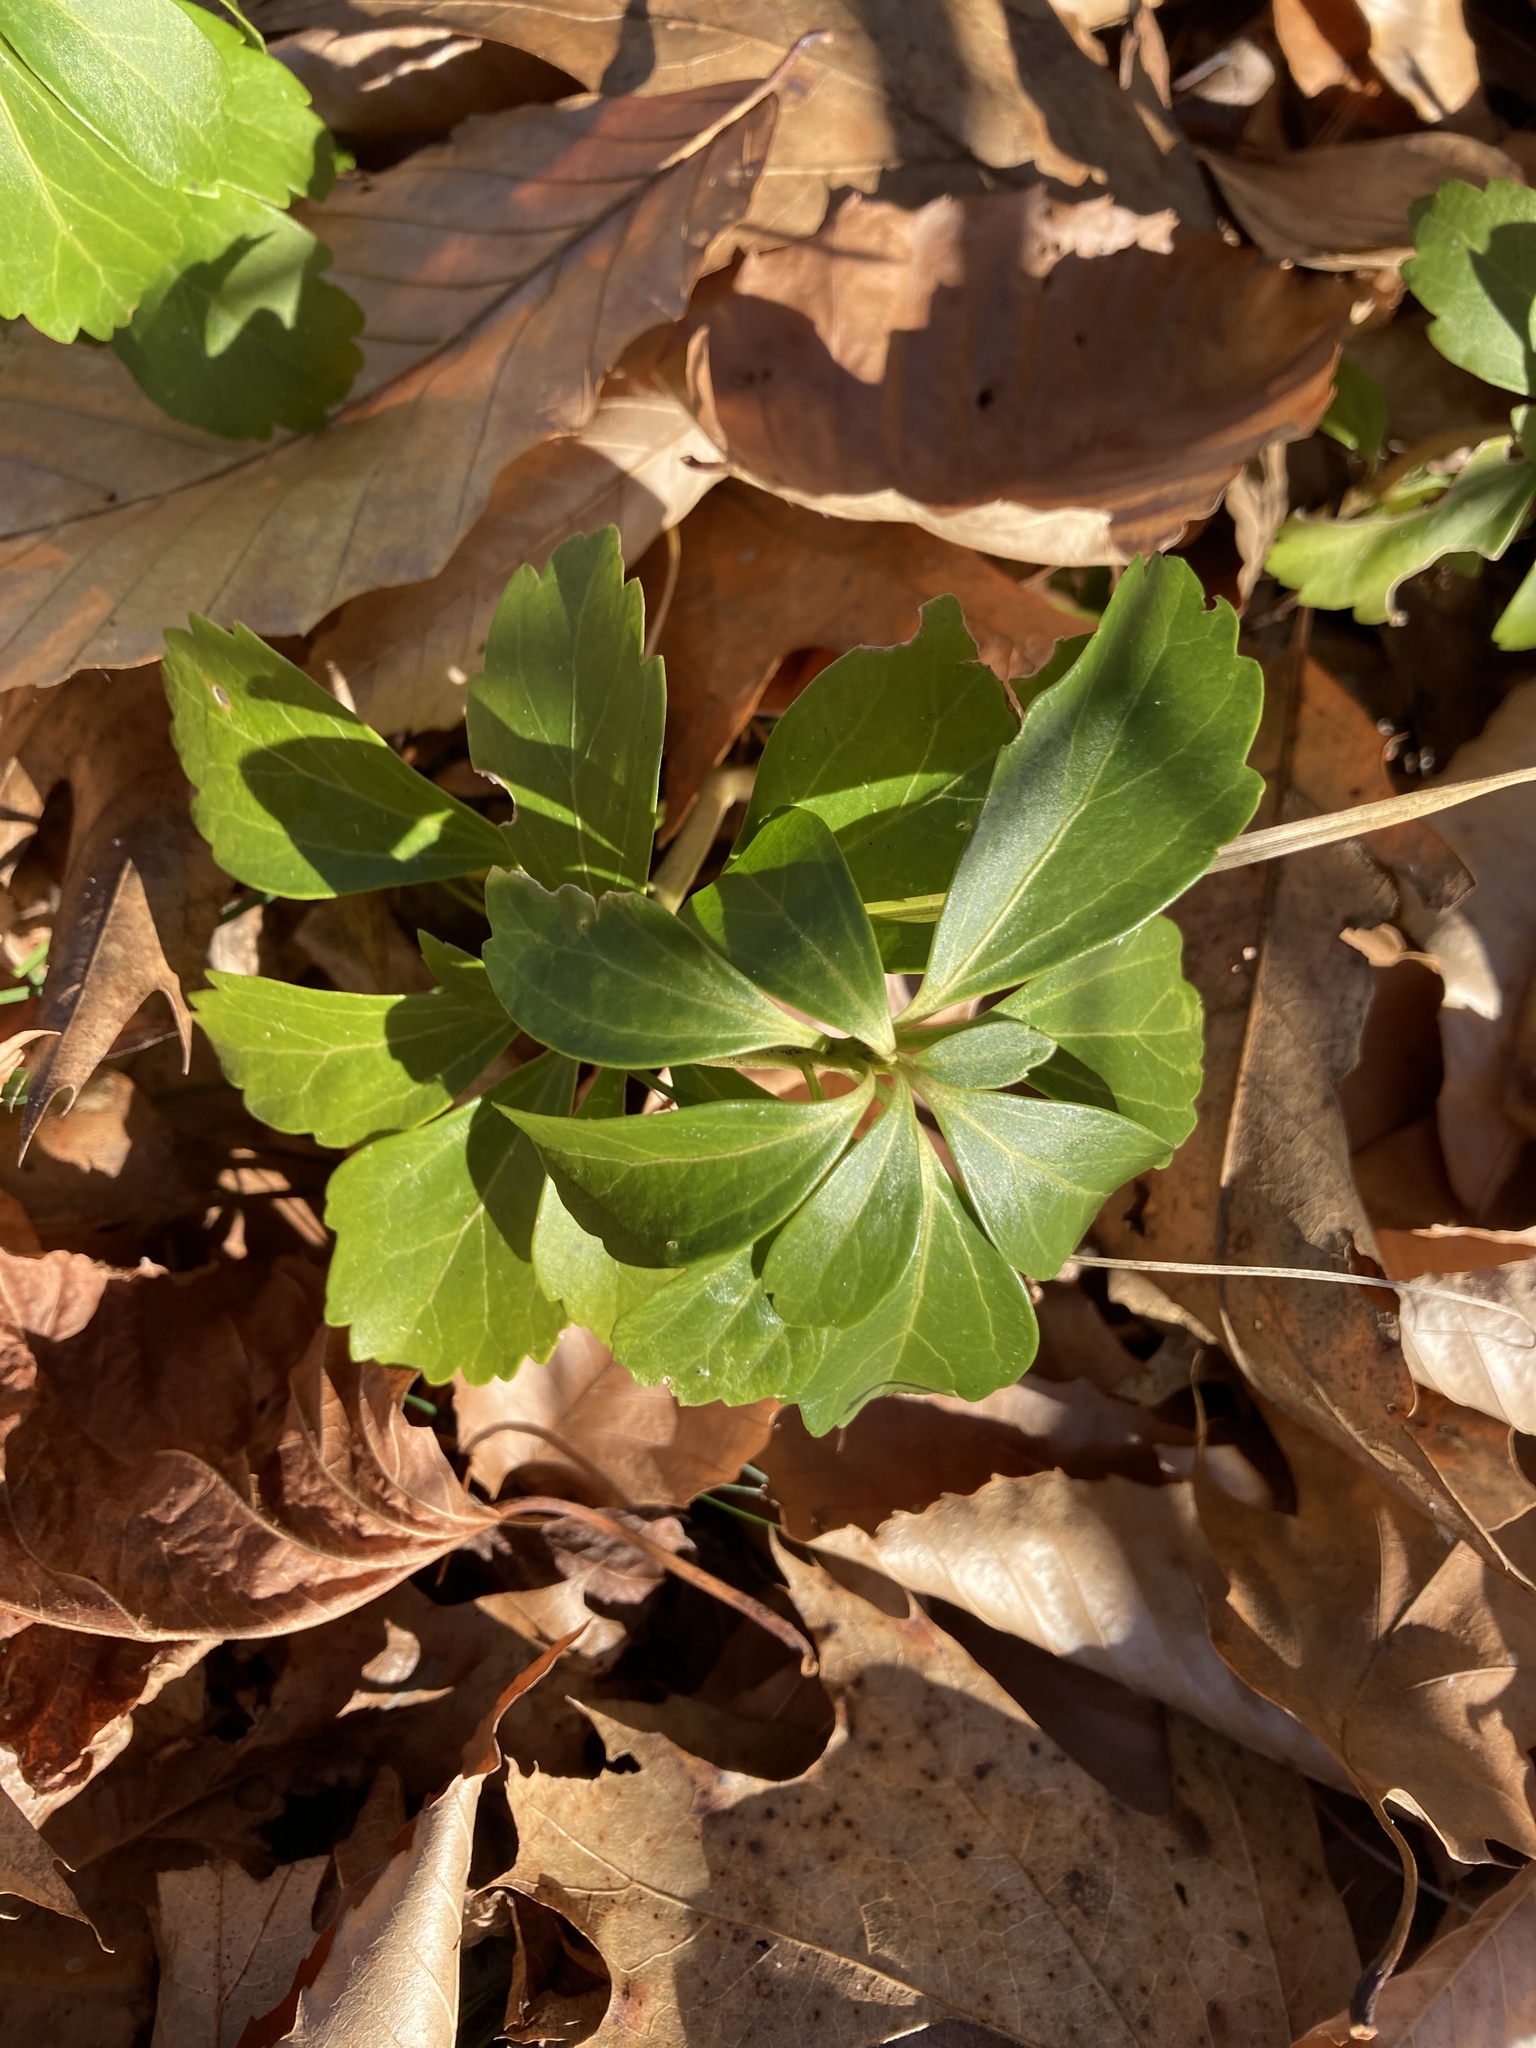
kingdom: Plantae
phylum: Tracheophyta
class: Magnoliopsida
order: Buxales
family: Buxaceae
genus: Pachysandra
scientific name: Pachysandra terminalis
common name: Japanese pachysandra
